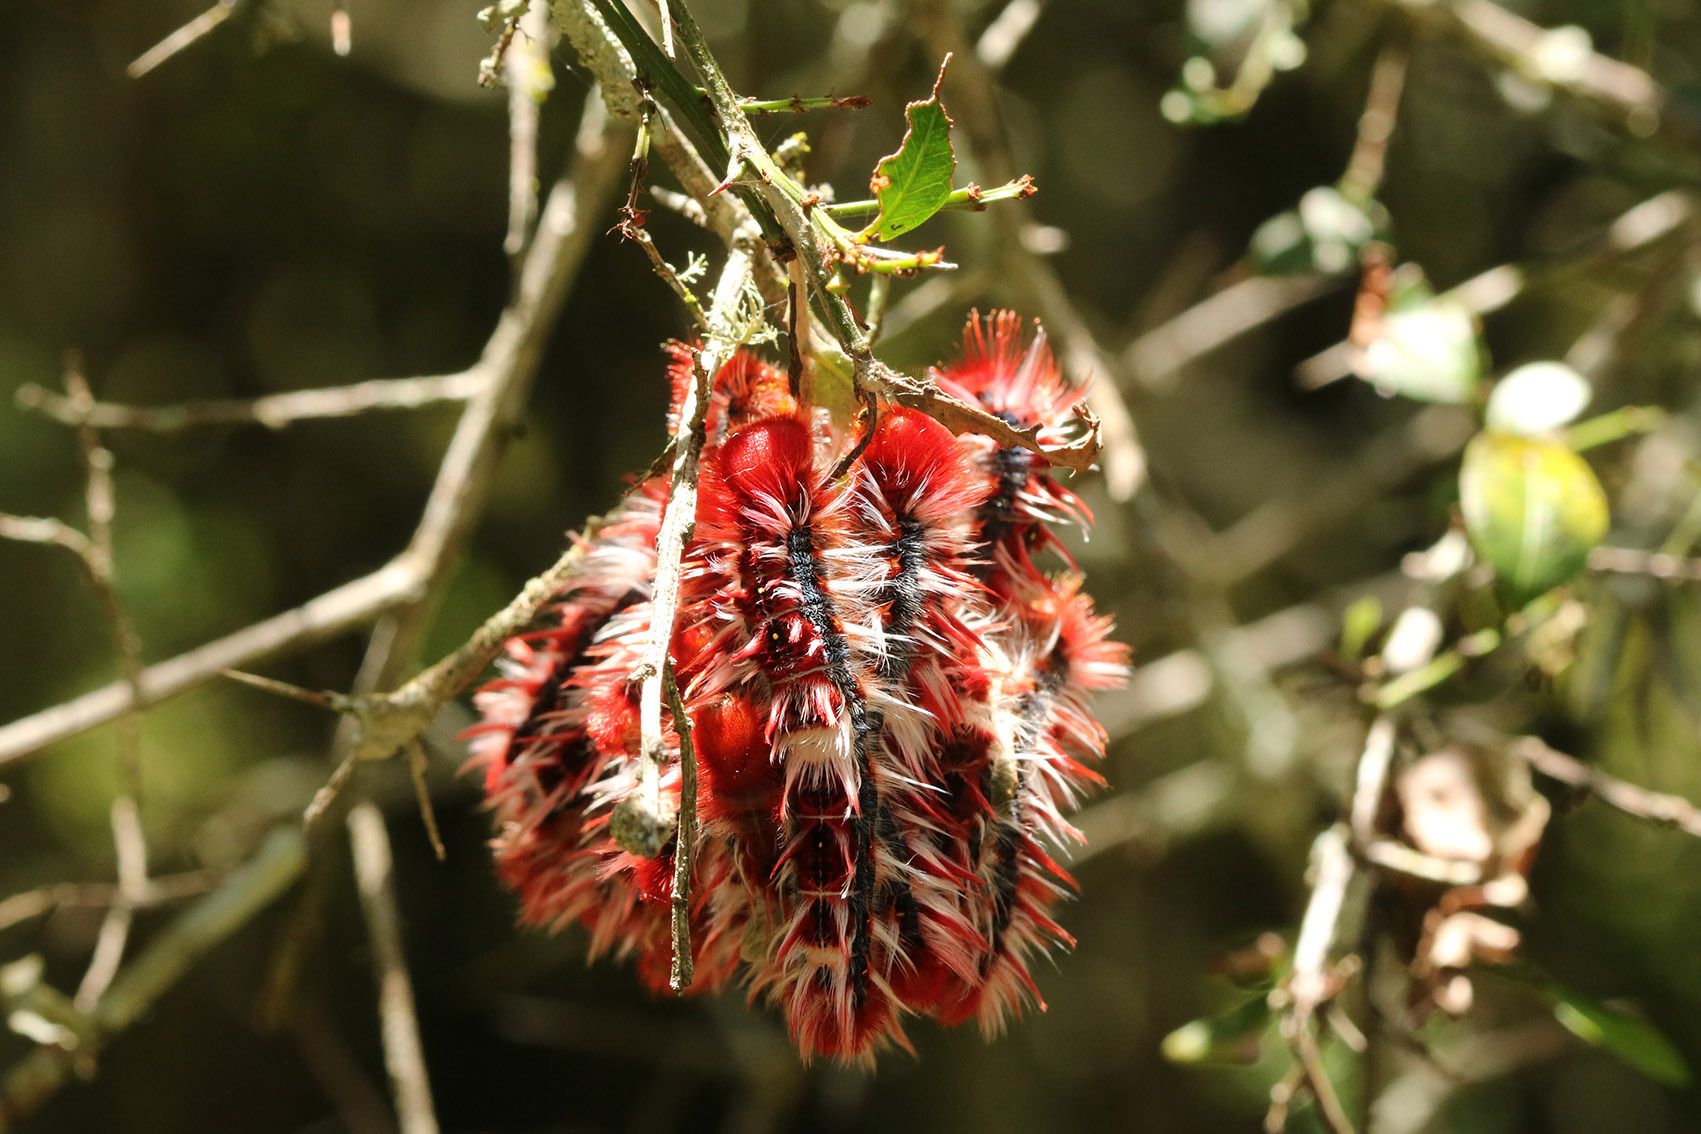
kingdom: Animalia
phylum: Arthropoda
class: Insecta
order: Lepidoptera
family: Nymphalidae
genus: Morpho
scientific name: Morpho epistrophus
